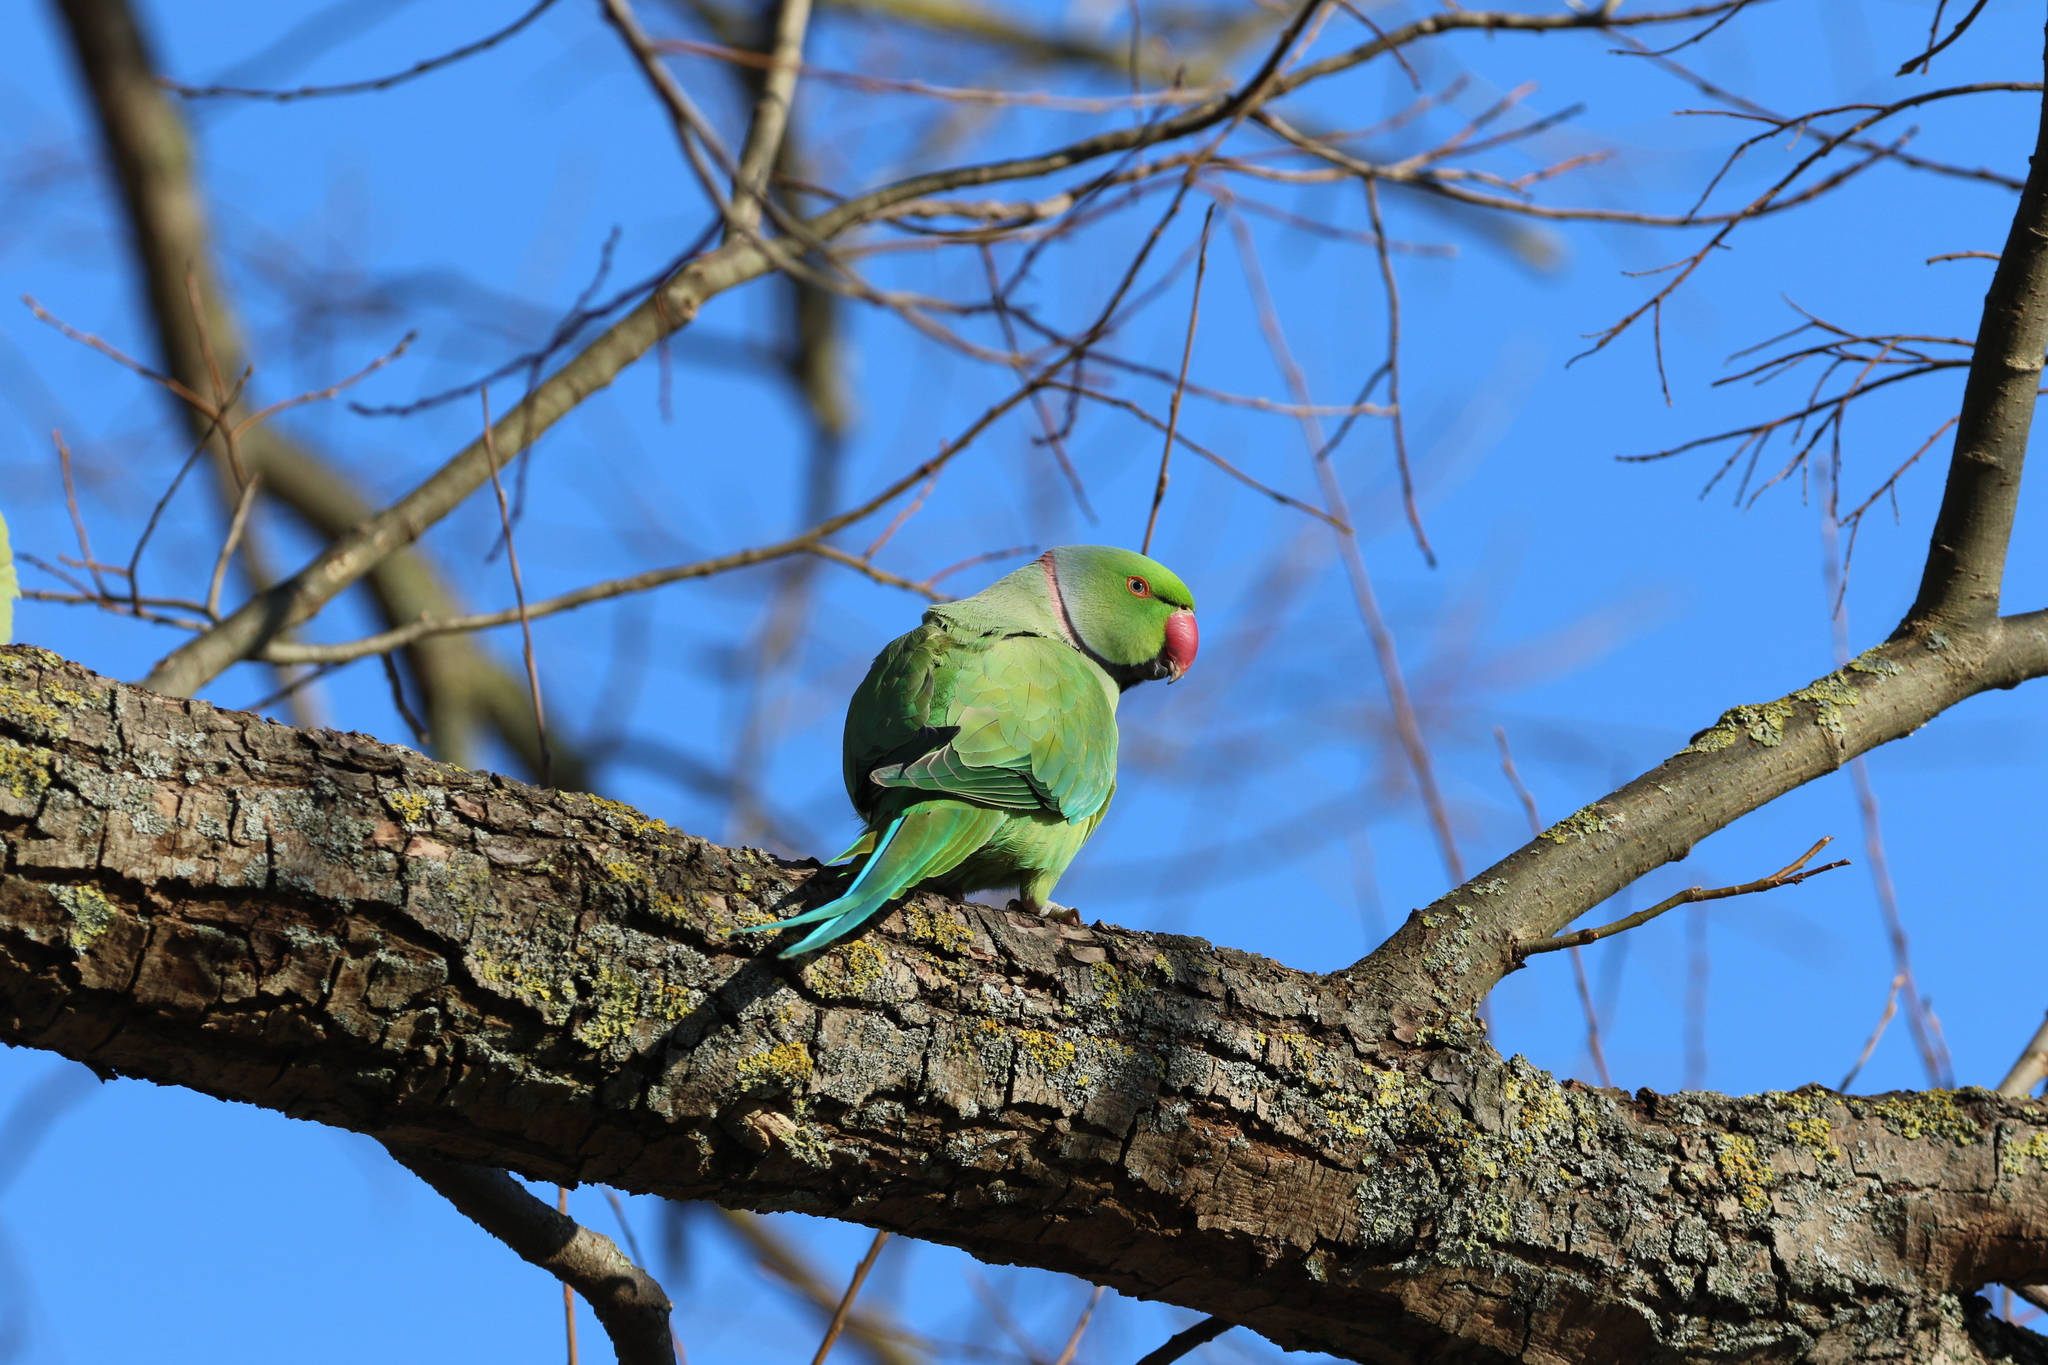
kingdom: Animalia
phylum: Chordata
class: Aves
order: Psittaciformes
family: Psittacidae
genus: Psittacula
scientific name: Psittacula krameri
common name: Rose-ringed parakeet
